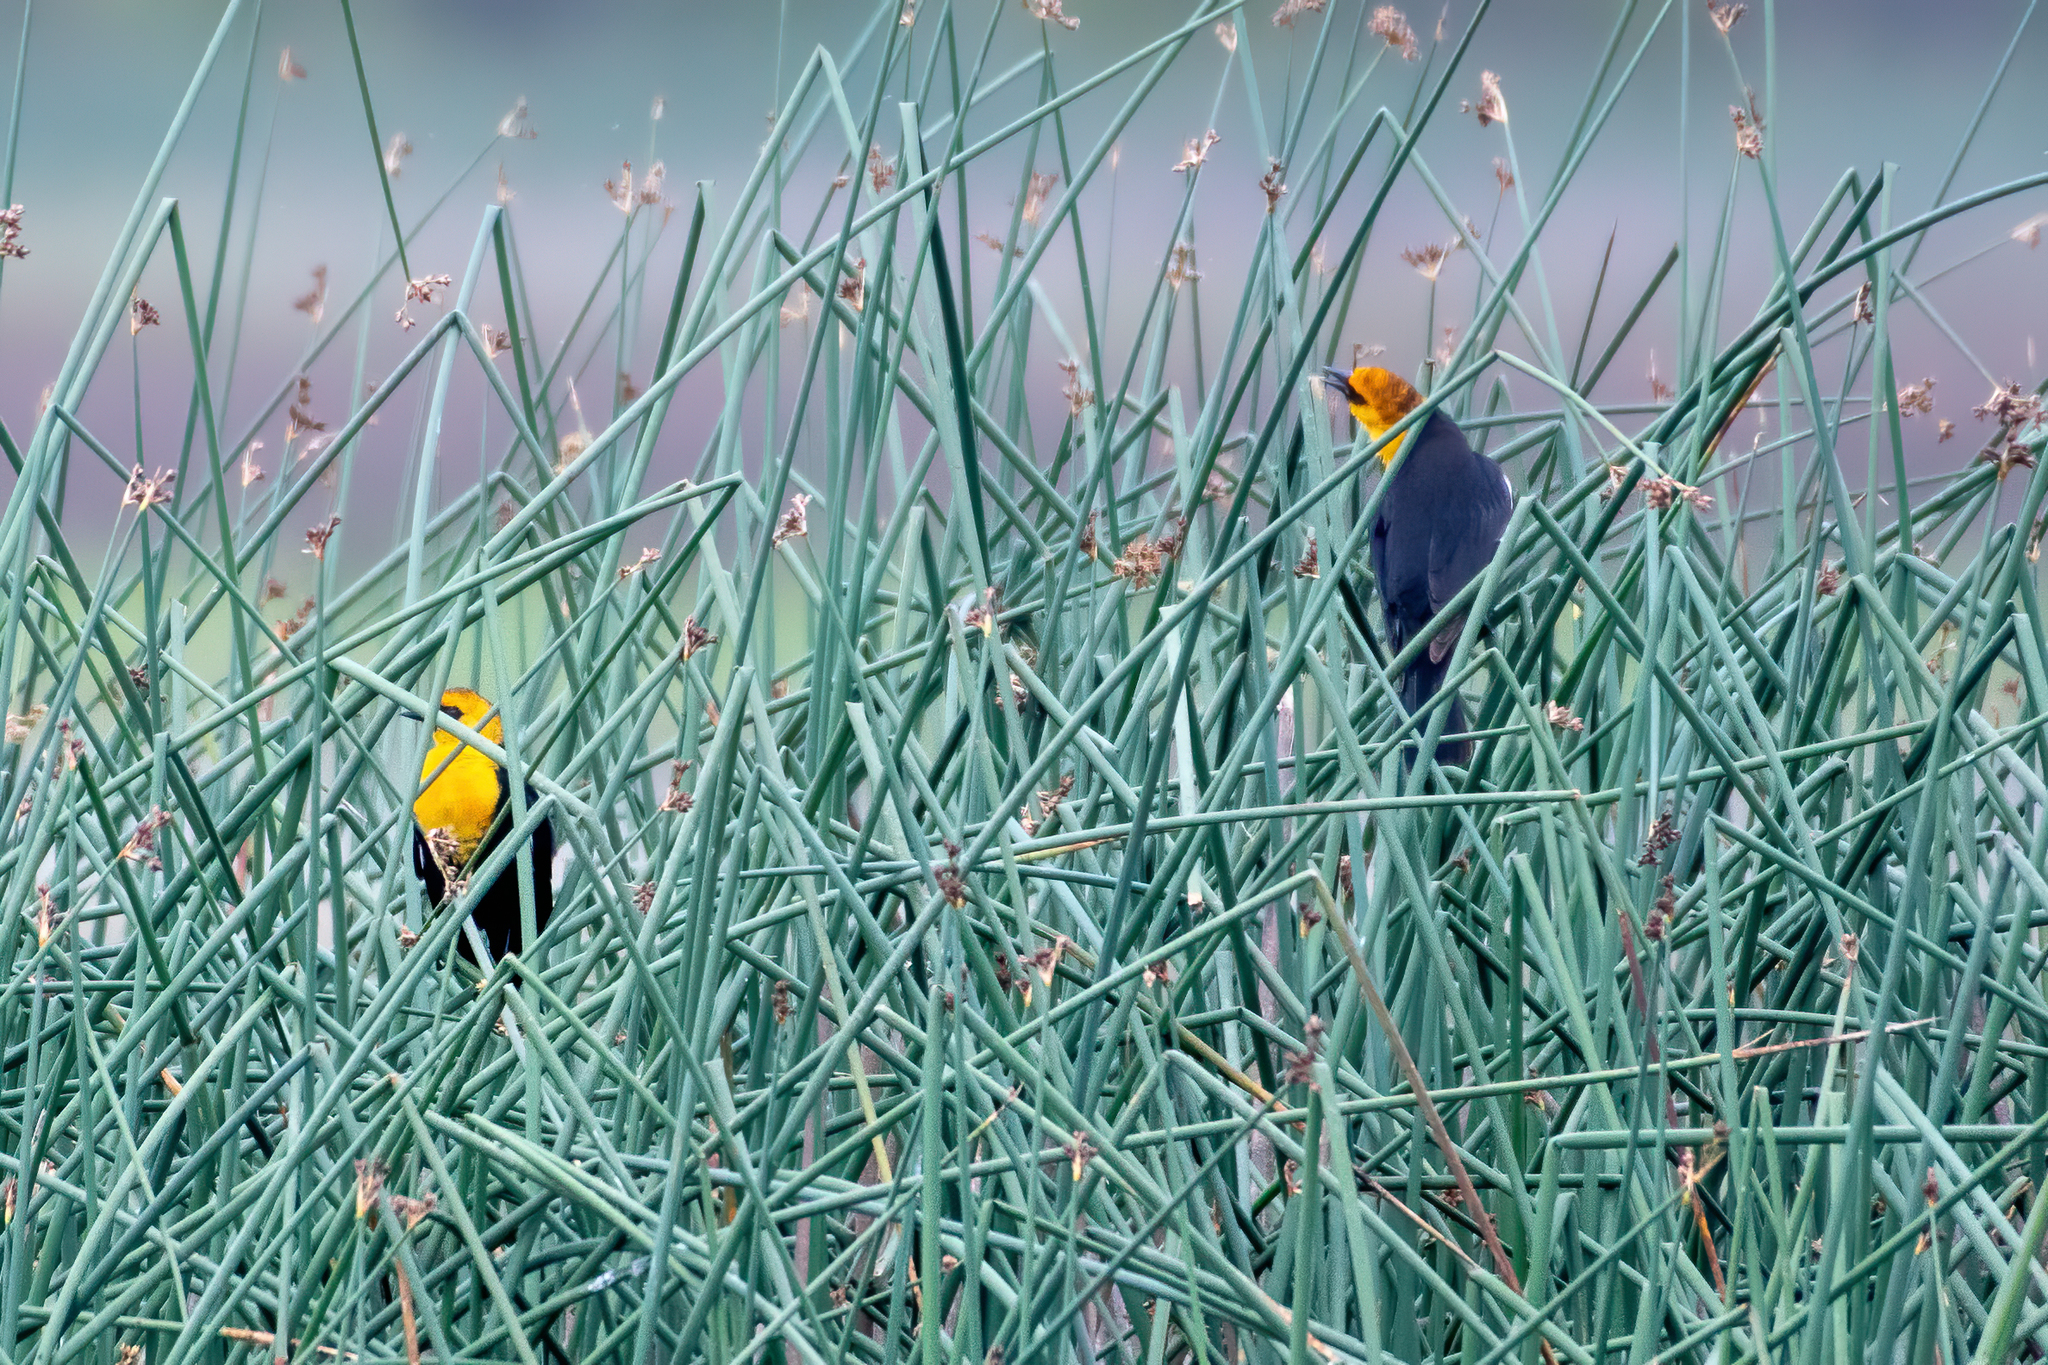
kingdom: Animalia
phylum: Chordata
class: Aves
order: Passeriformes
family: Icteridae
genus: Xanthocephalus
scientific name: Xanthocephalus xanthocephalus
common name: Yellow-headed blackbird
